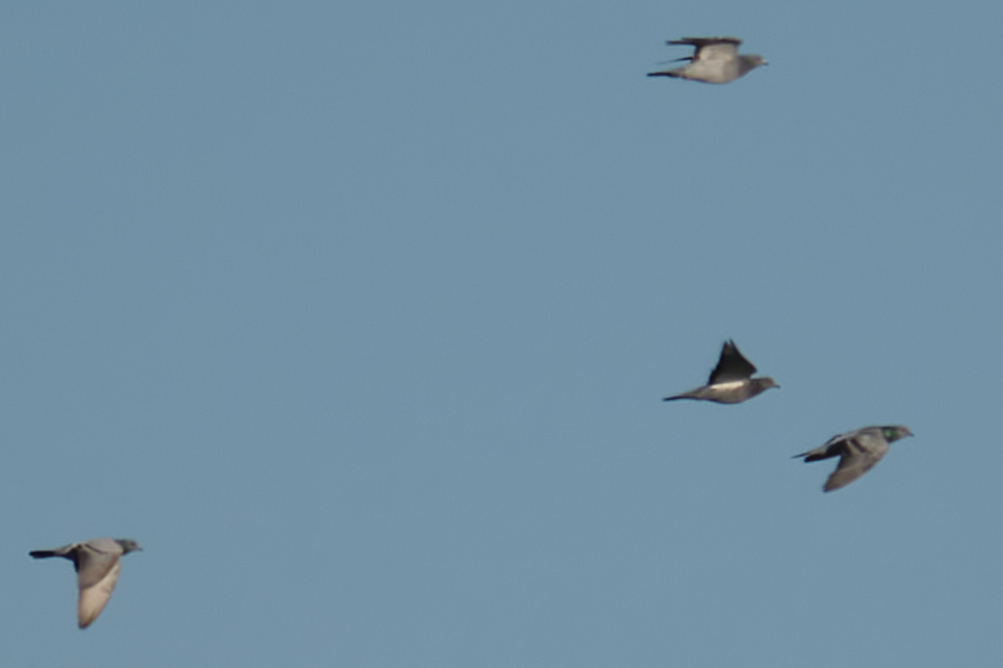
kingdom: Animalia
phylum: Chordata
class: Aves
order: Columbiformes
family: Columbidae
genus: Columba
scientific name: Columba livia
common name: Rock pigeon
